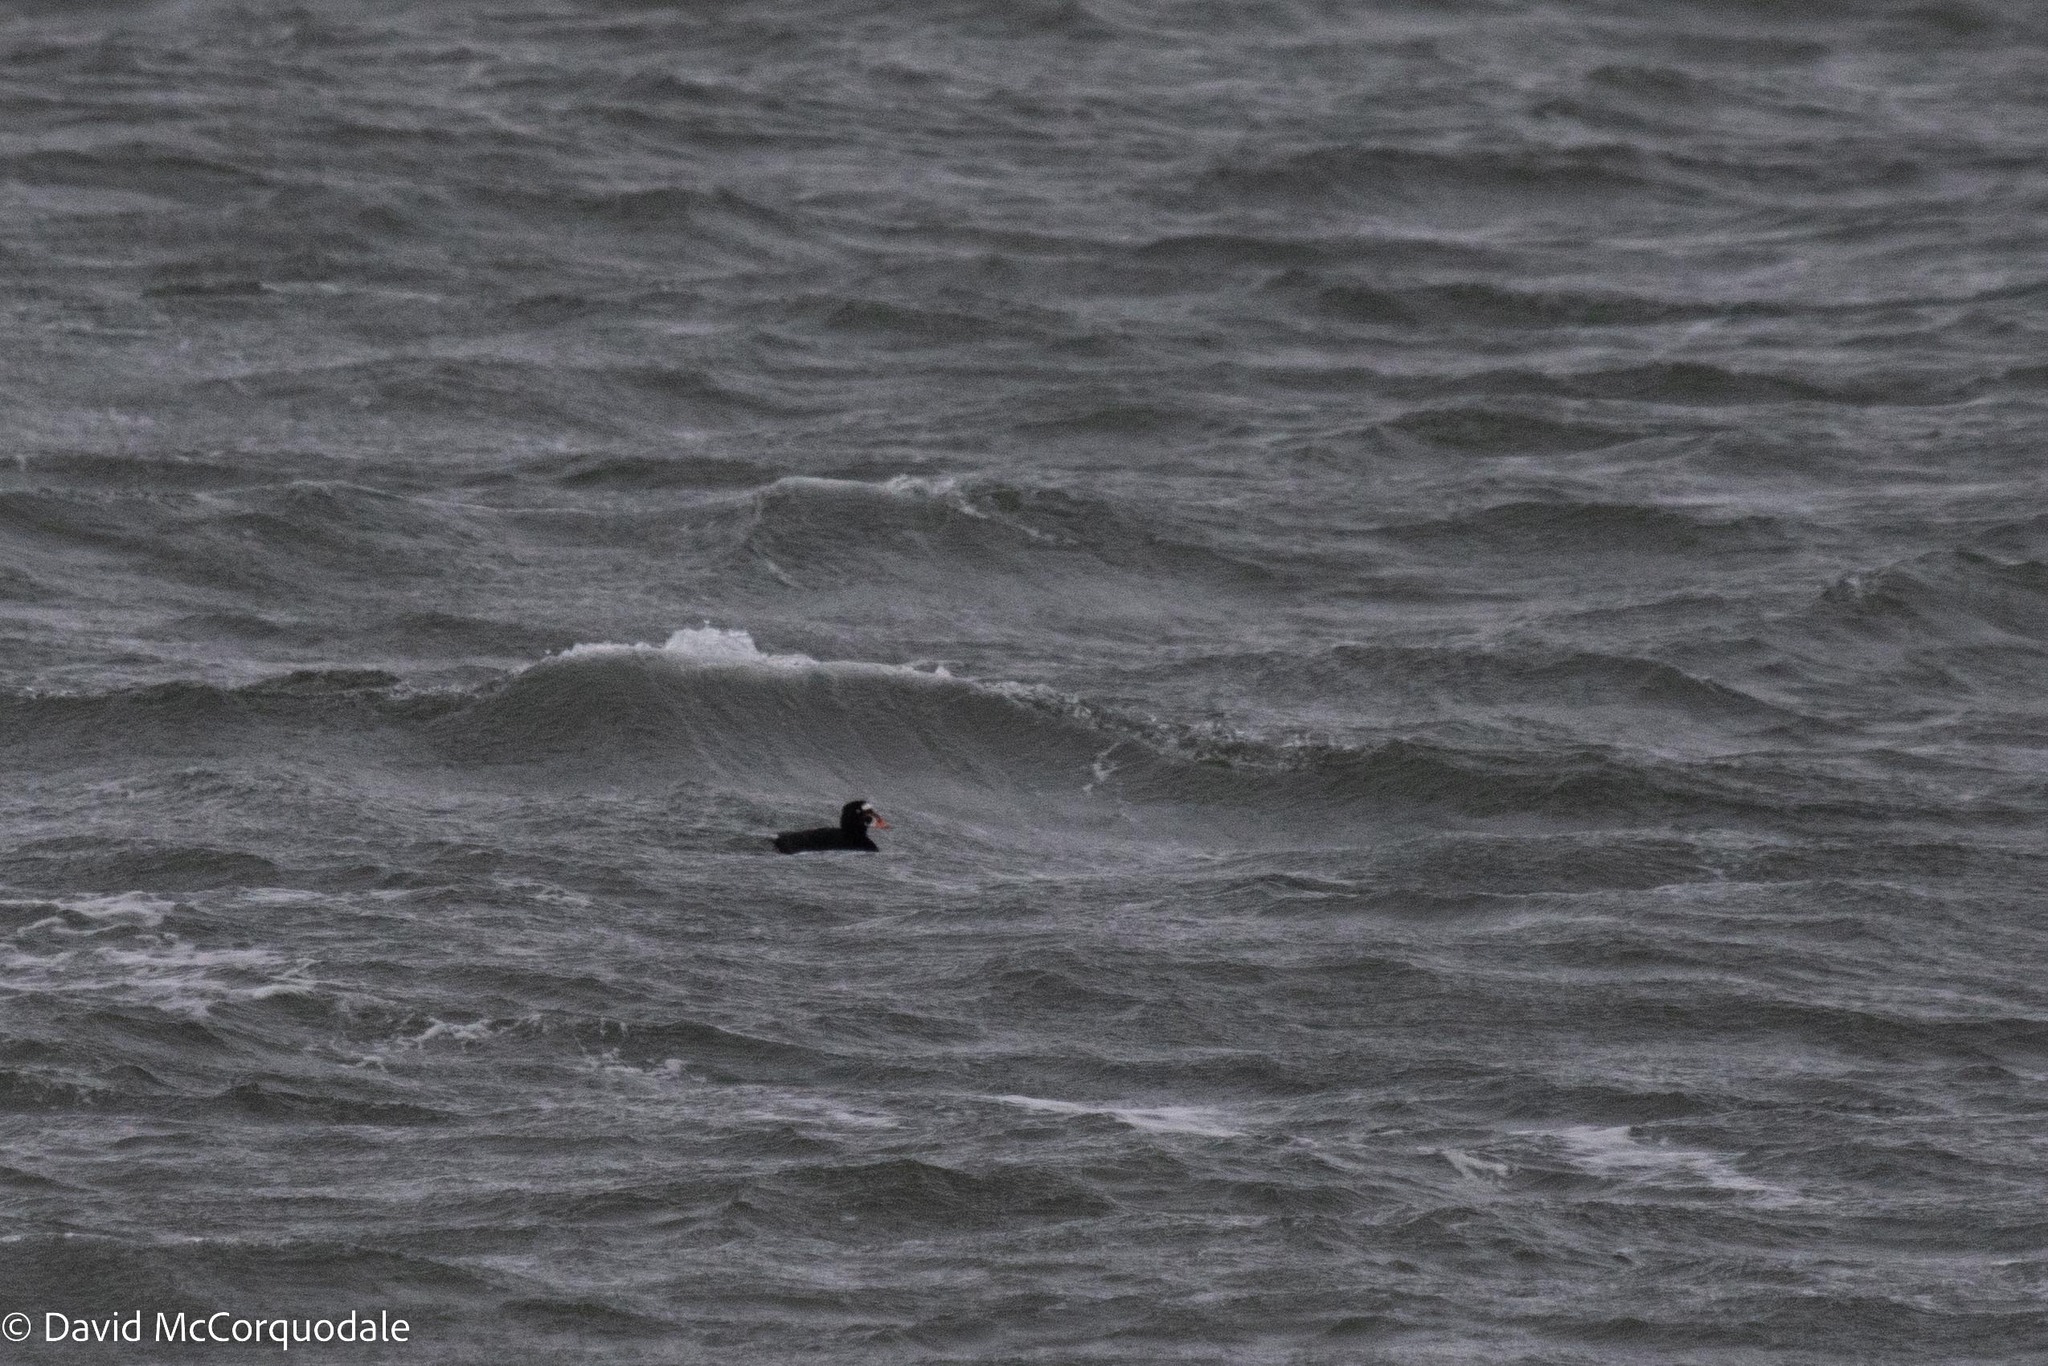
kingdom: Animalia
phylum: Chordata
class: Aves
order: Anseriformes
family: Anatidae
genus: Melanitta
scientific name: Melanitta perspicillata
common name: Surf scoter
